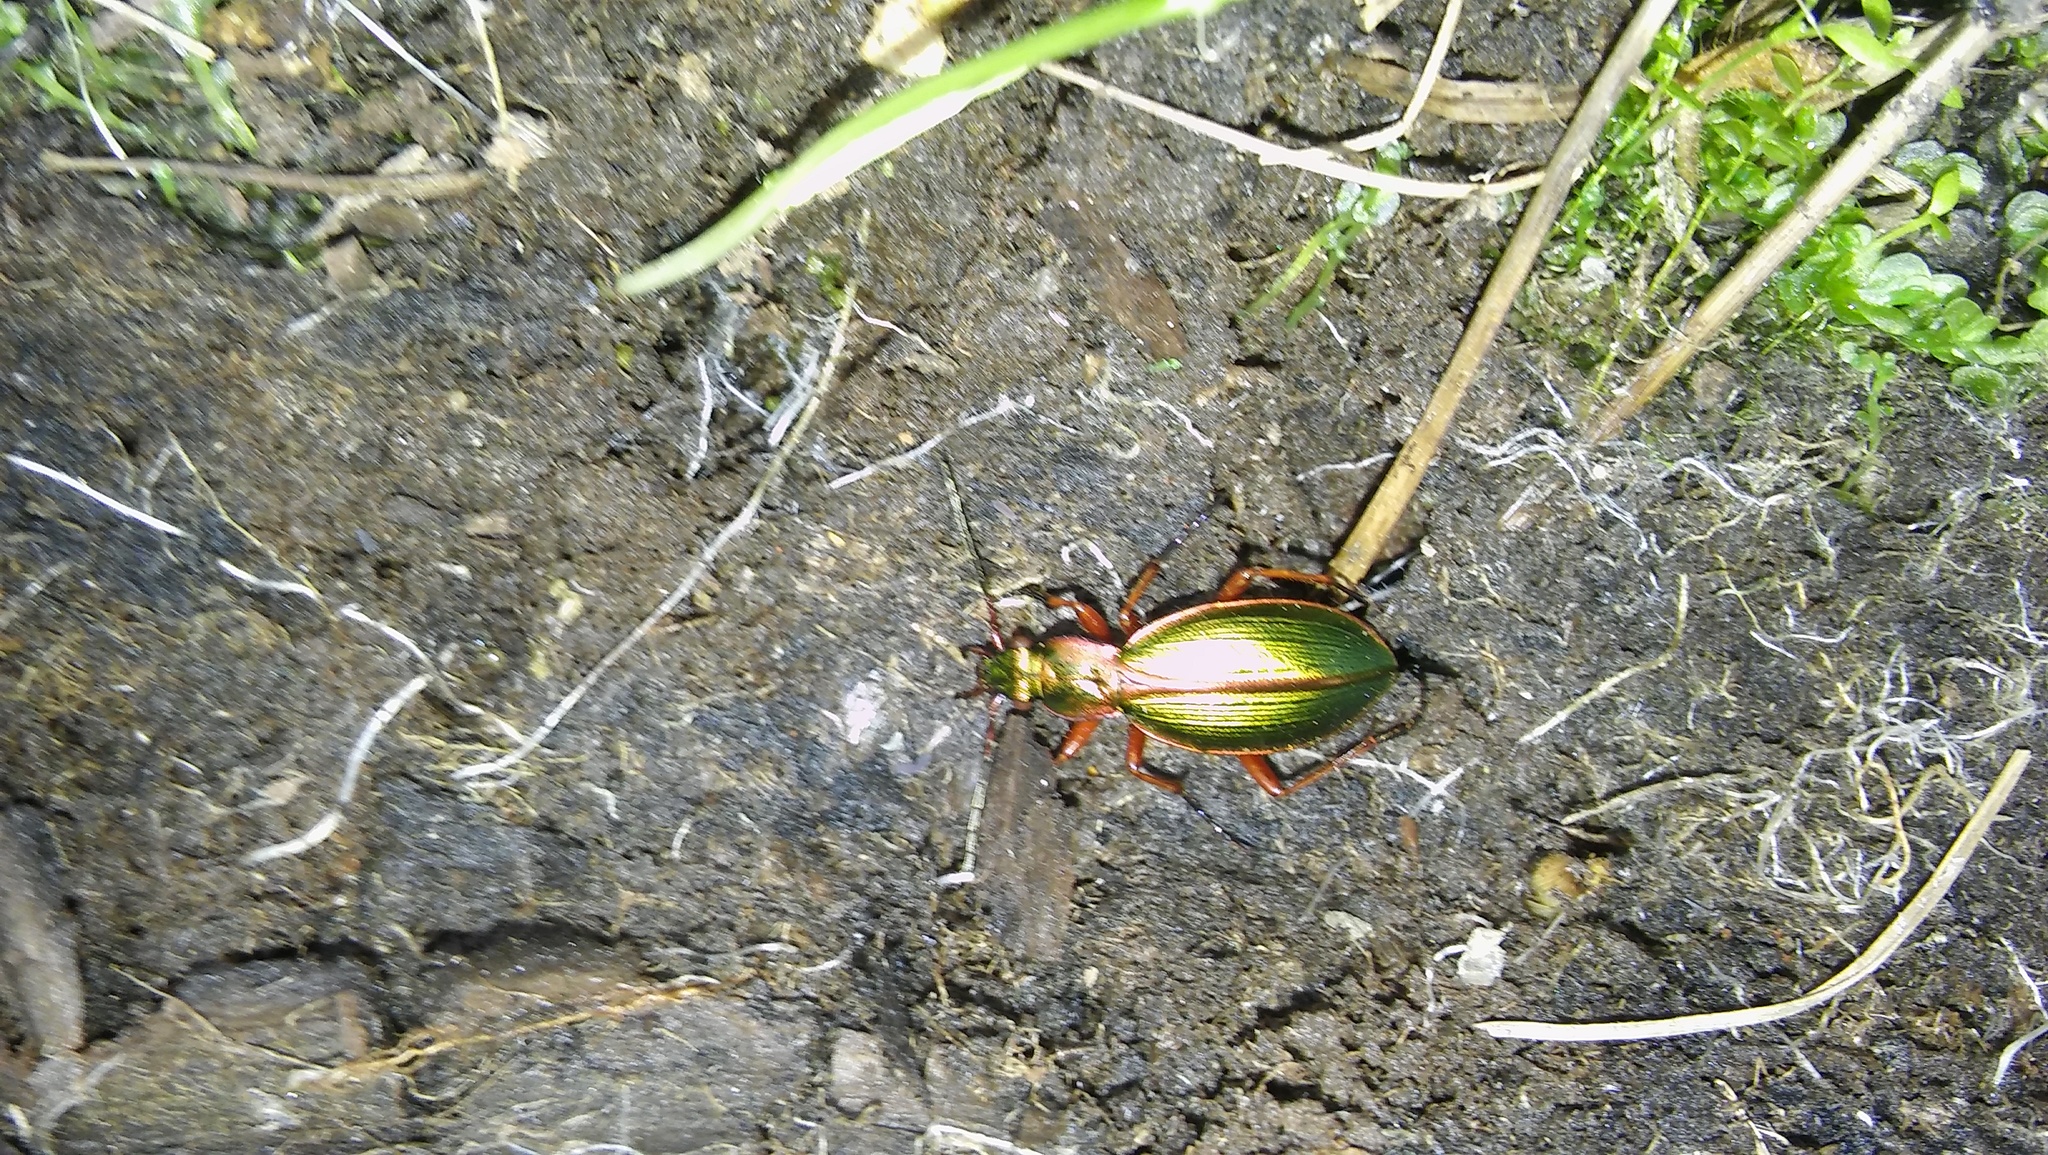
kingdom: Animalia
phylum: Arthropoda
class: Insecta
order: Coleoptera
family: Carabidae
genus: Ceroglossus
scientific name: Ceroglossus suturalis
